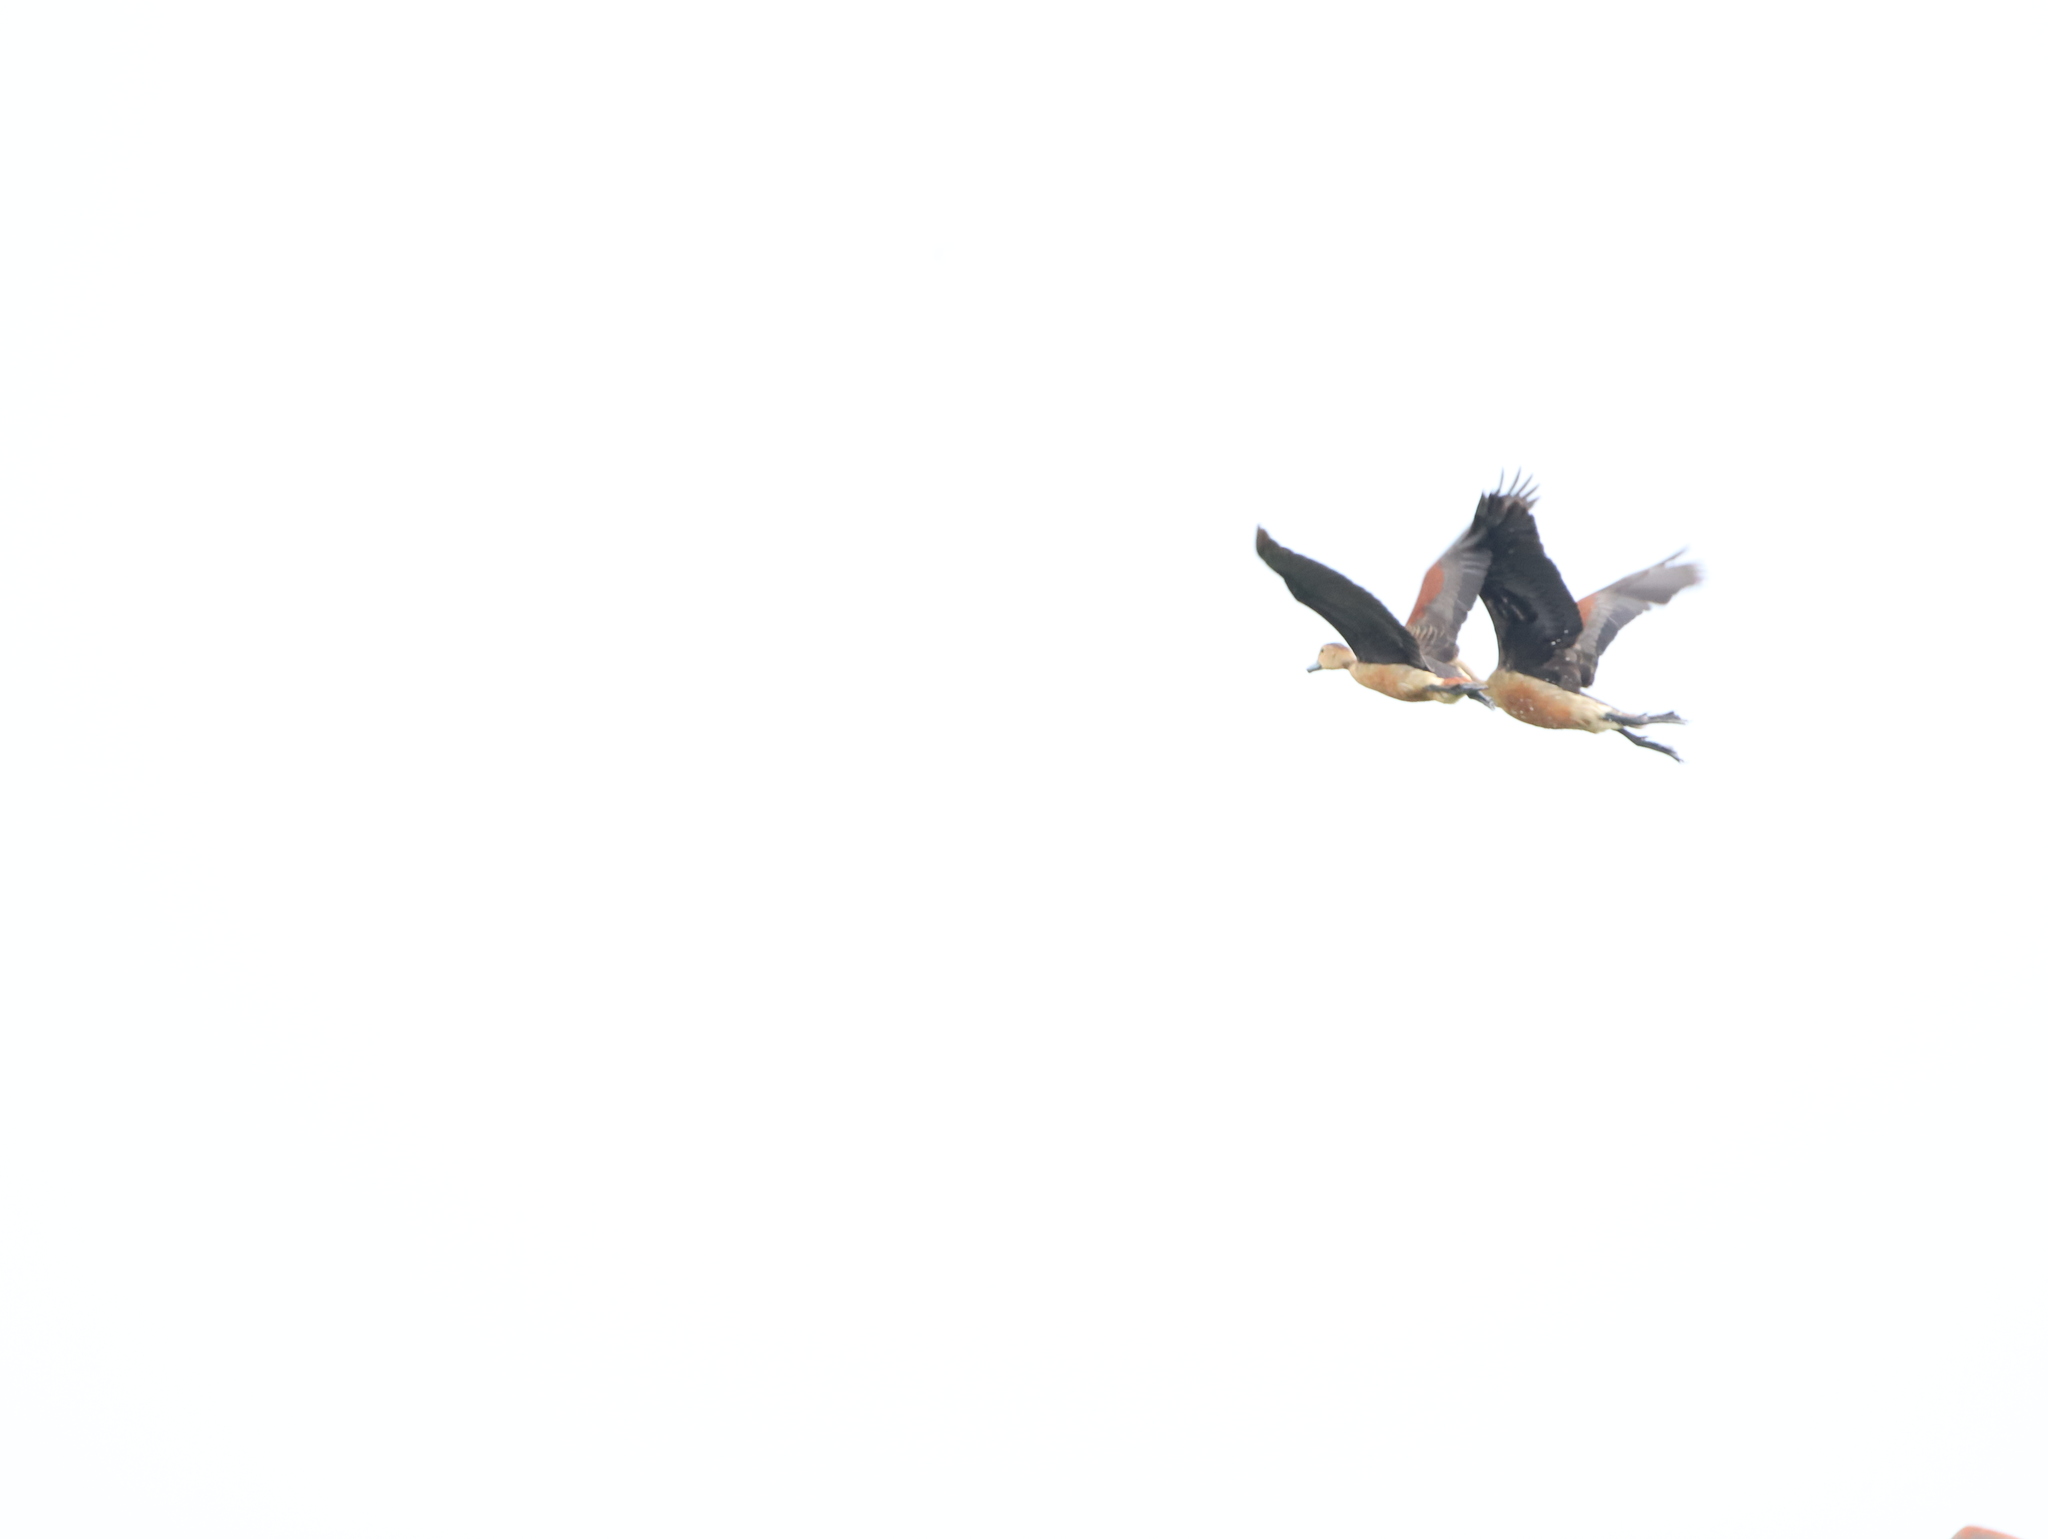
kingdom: Animalia
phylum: Chordata
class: Aves
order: Anseriformes
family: Anatidae
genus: Dendrocygna
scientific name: Dendrocygna javanica
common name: Lesser whistling-duck
